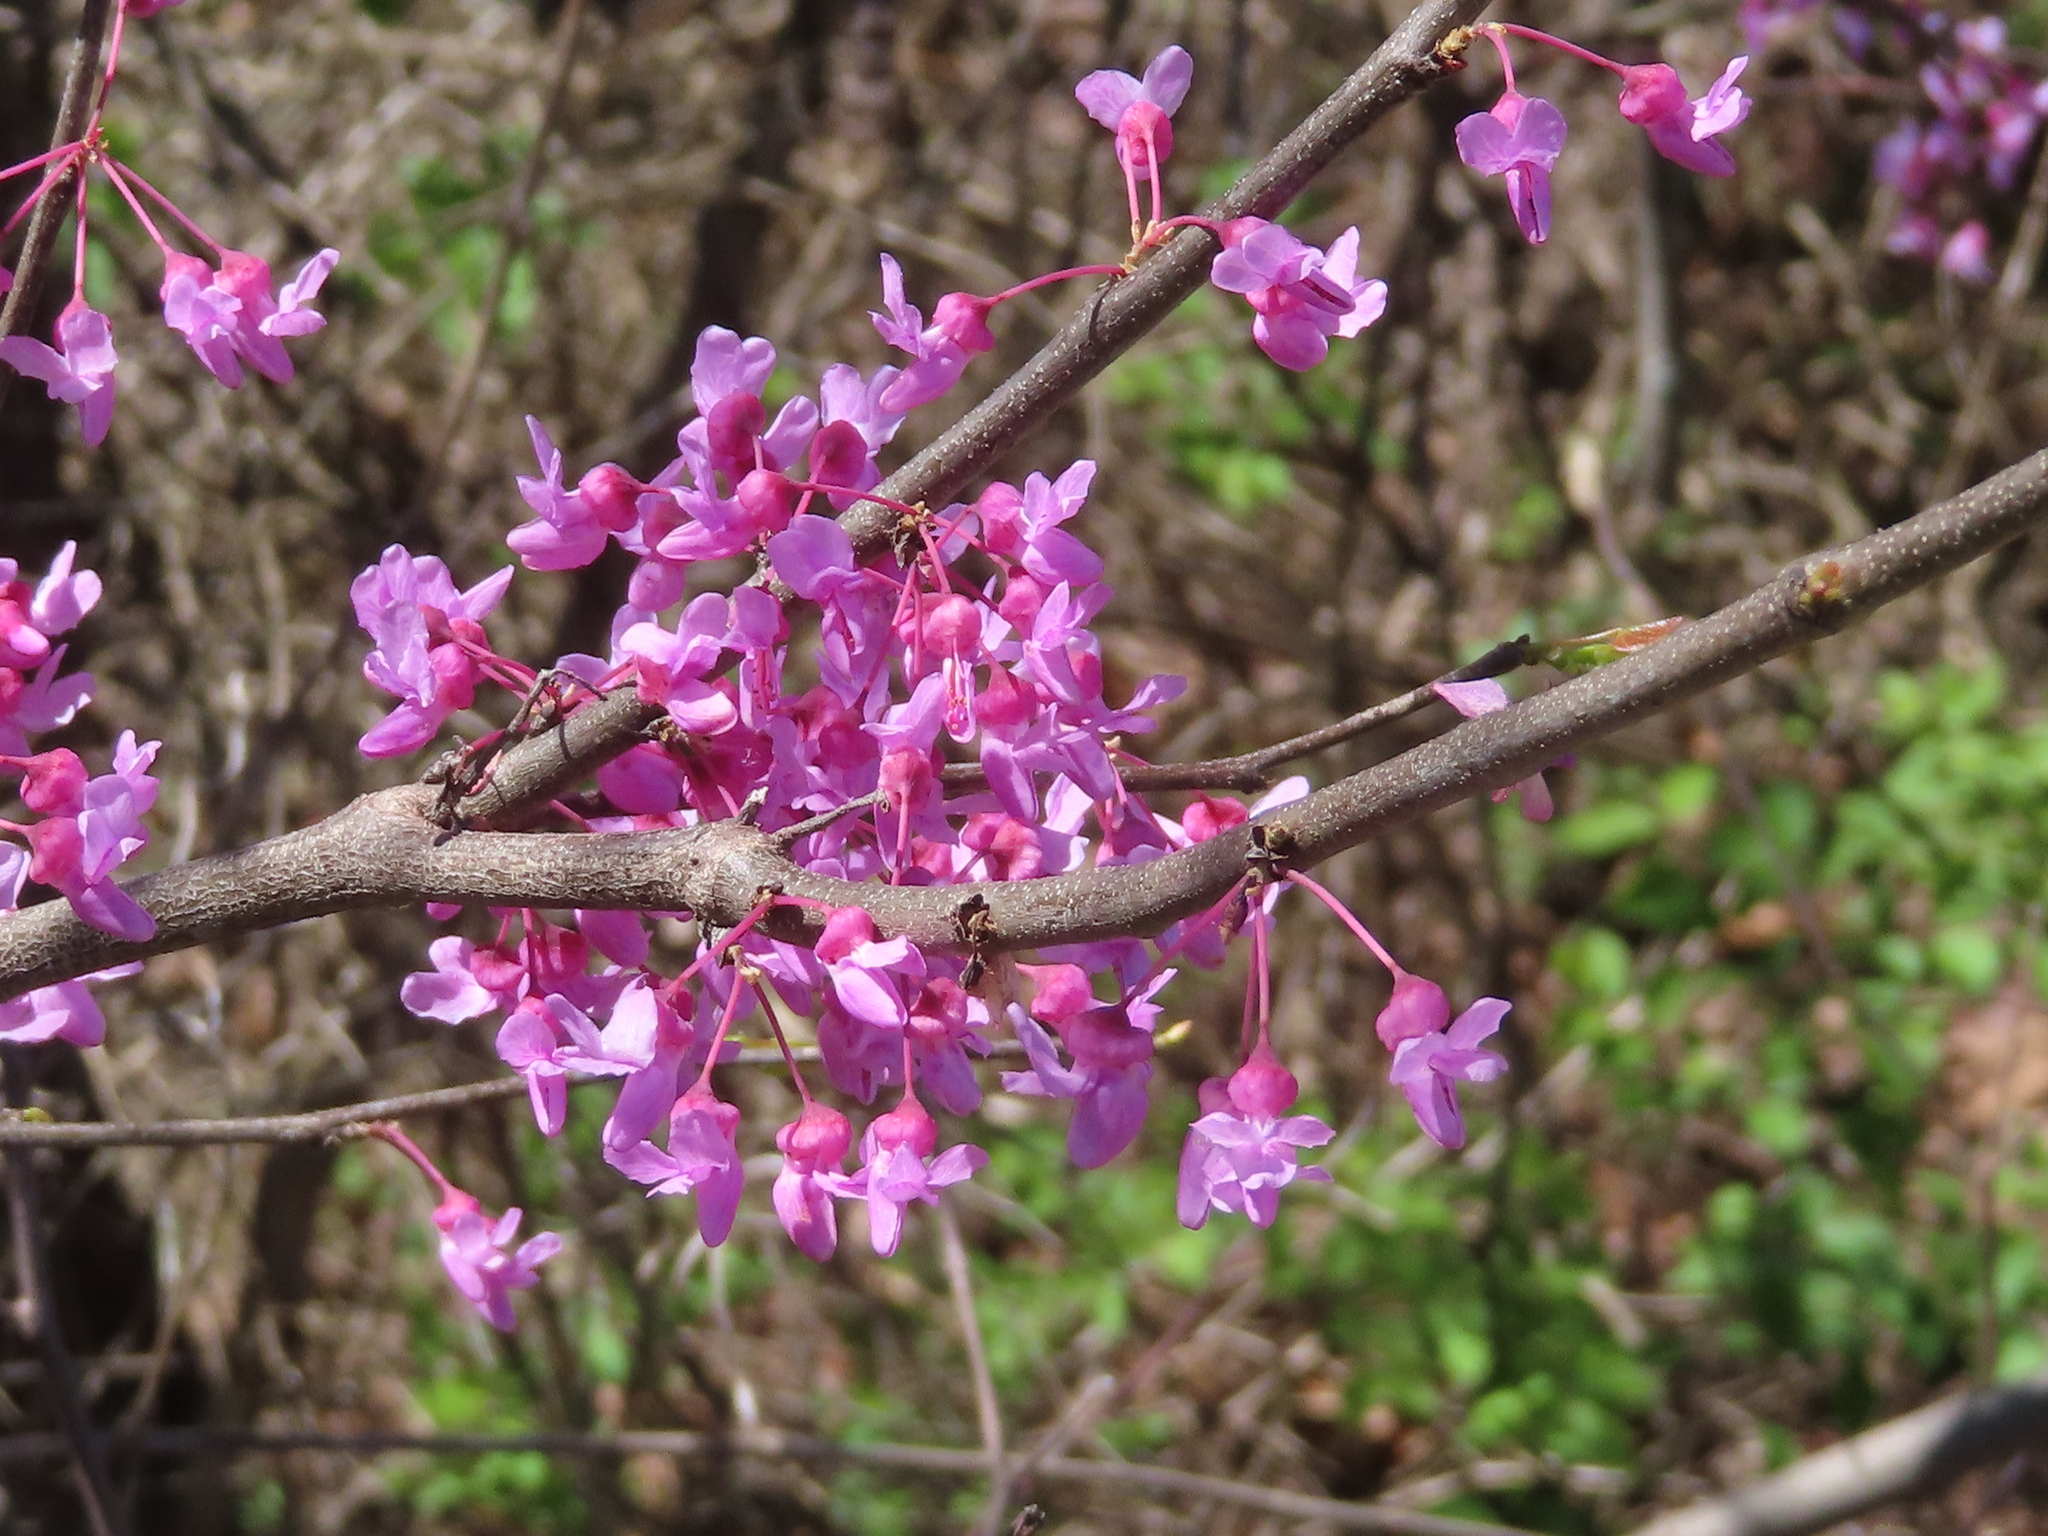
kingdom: Plantae
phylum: Tracheophyta
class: Magnoliopsida
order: Fabales
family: Fabaceae
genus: Cercis
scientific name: Cercis canadensis
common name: Eastern redbud
